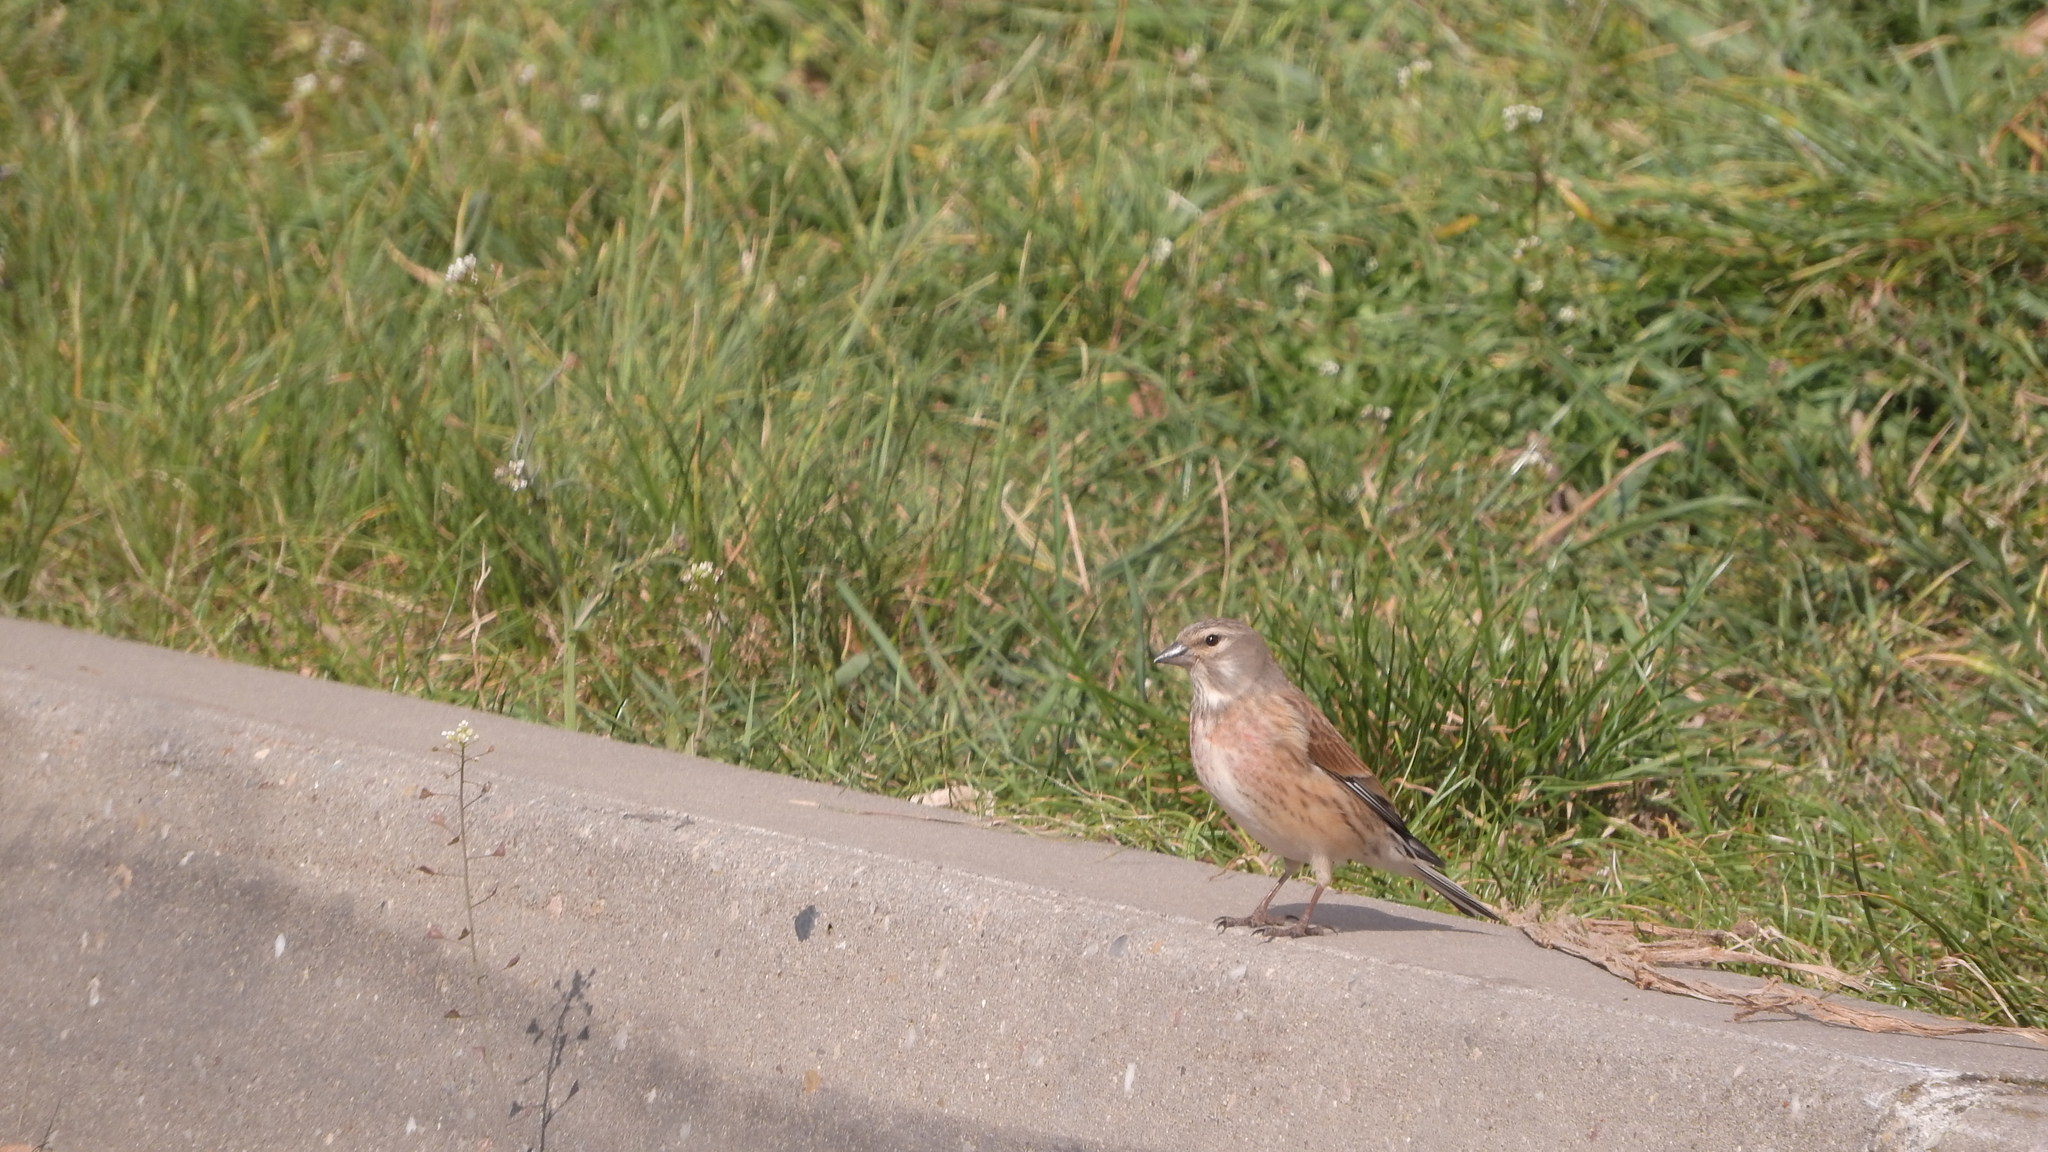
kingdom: Animalia
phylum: Chordata
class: Aves
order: Passeriformes
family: Fringillidae
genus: Linaria
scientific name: Linaria cannabina
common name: Common linnet
